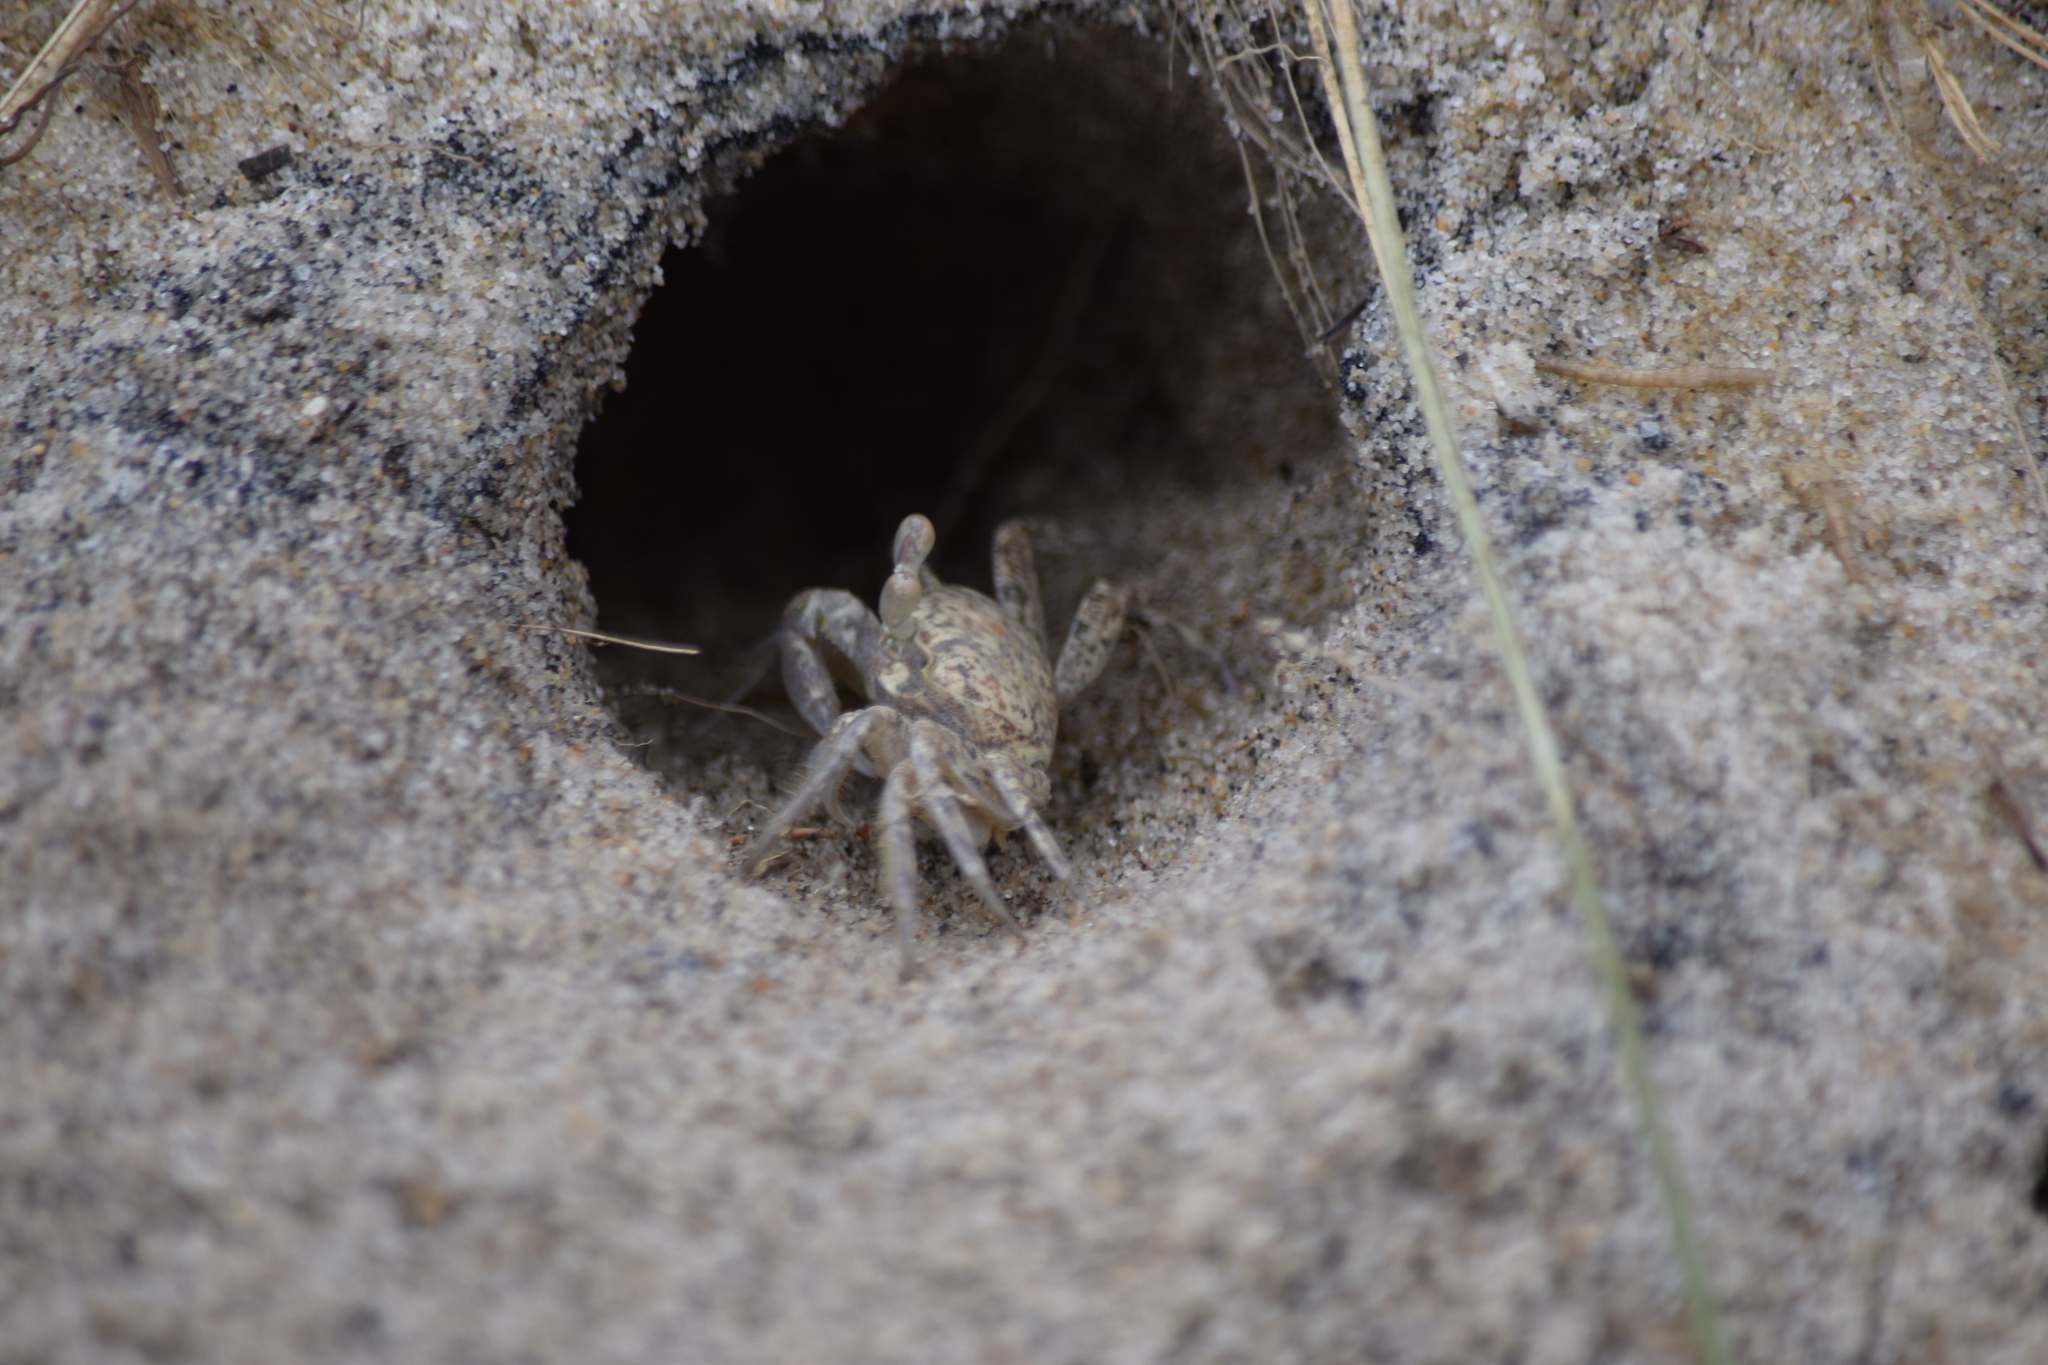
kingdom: Animalia
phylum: Arthropoda
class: Malacostraca
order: Decapoda
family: Ocypodidae
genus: Ocypode
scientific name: Ocypode quadrata
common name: Ghost crab
